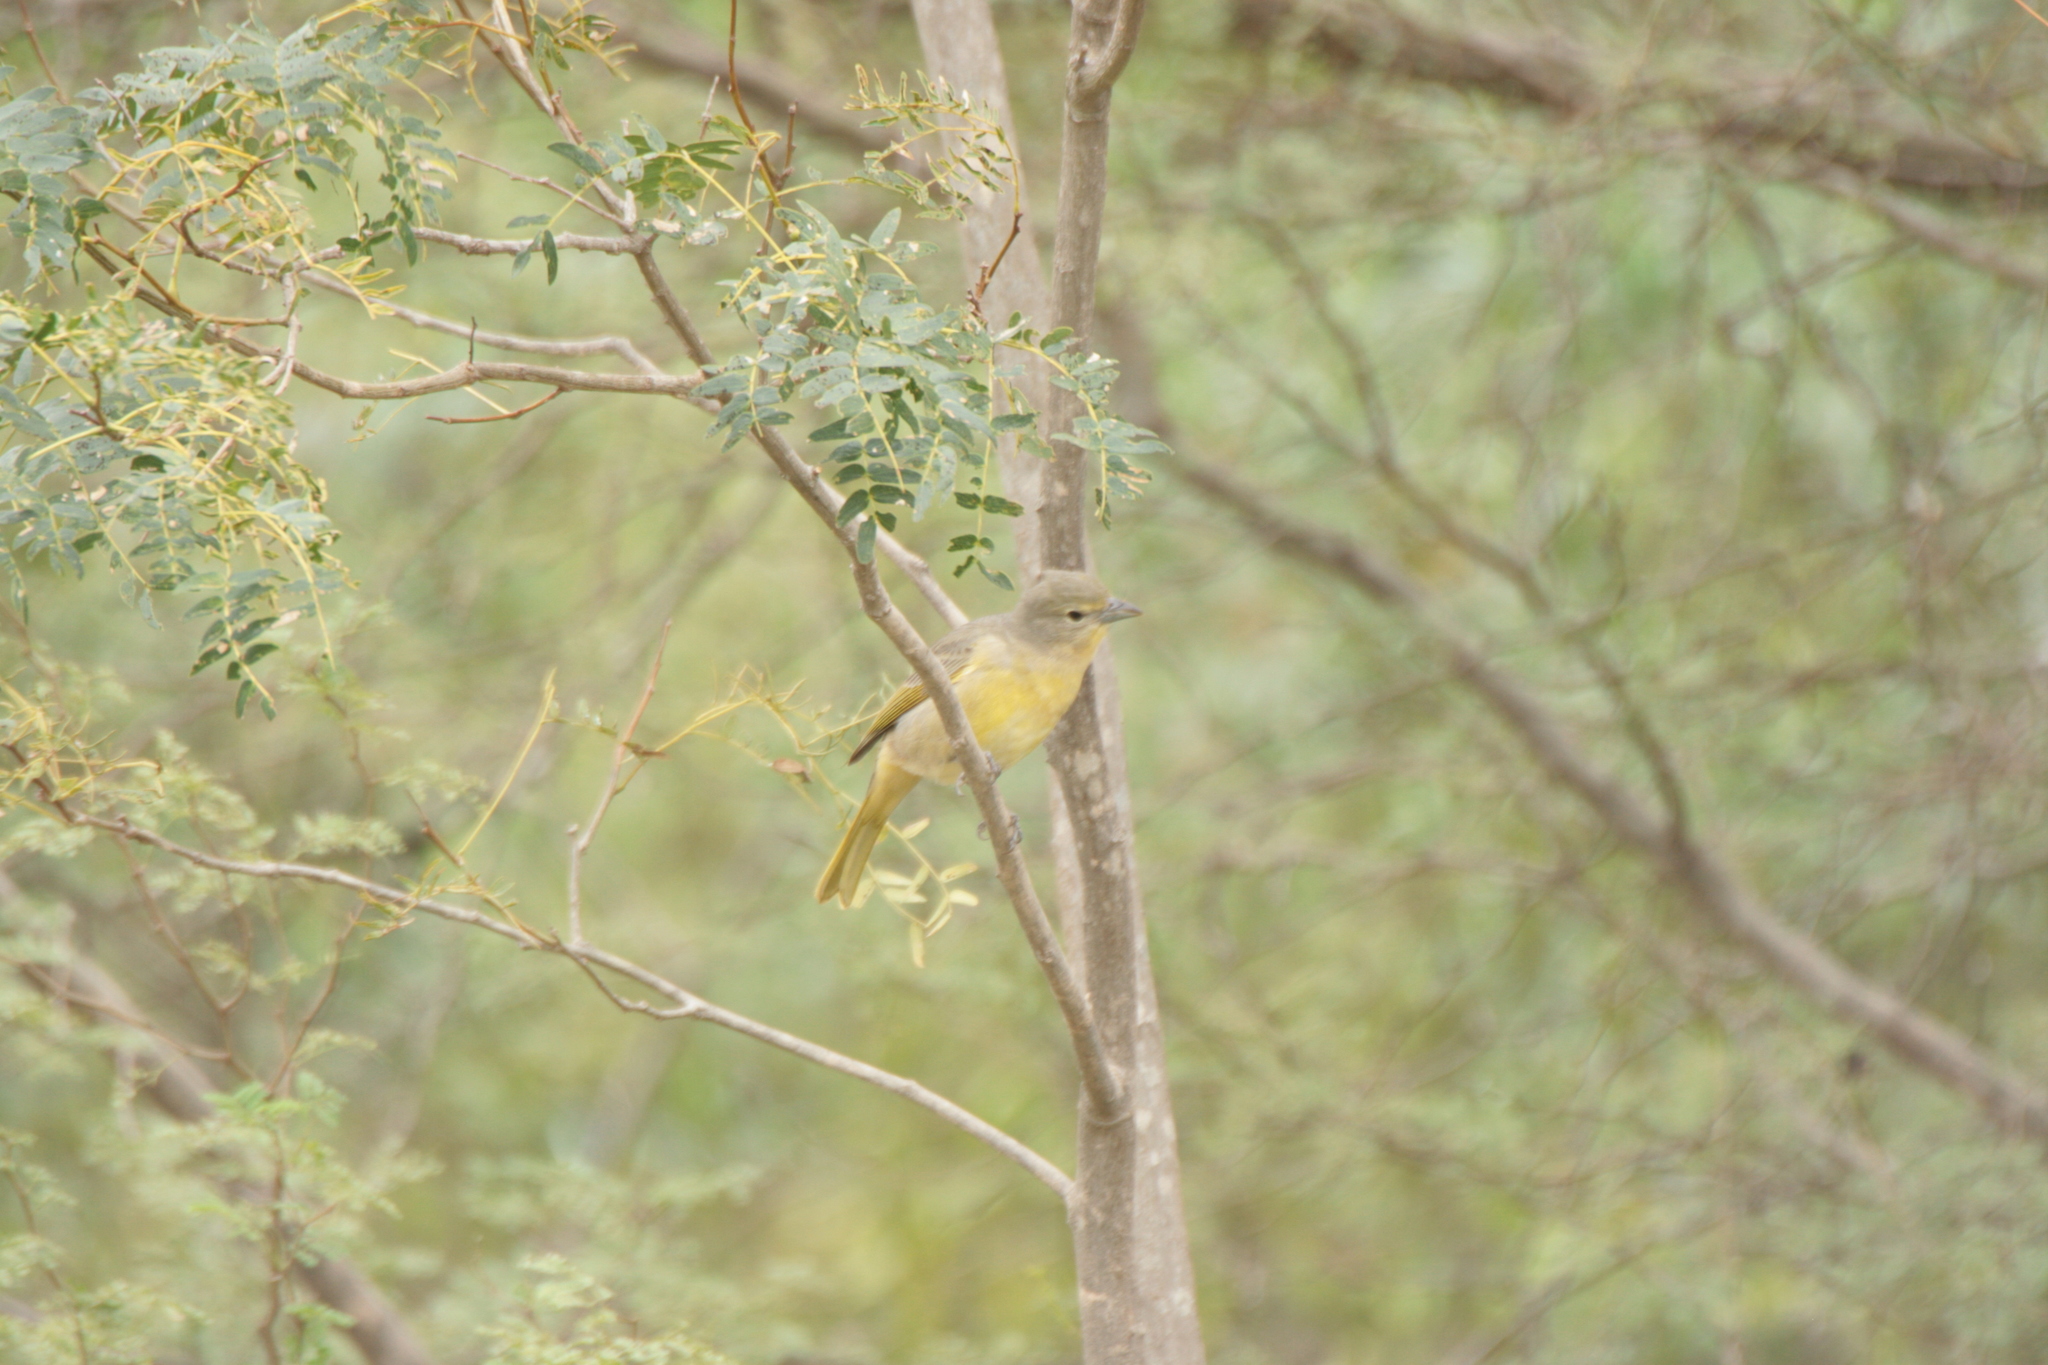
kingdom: Animalia
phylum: Chordata
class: Aves
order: Passeriformes
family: Cardinalidae
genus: Piranga
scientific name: Piranga flava
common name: Red tanager
